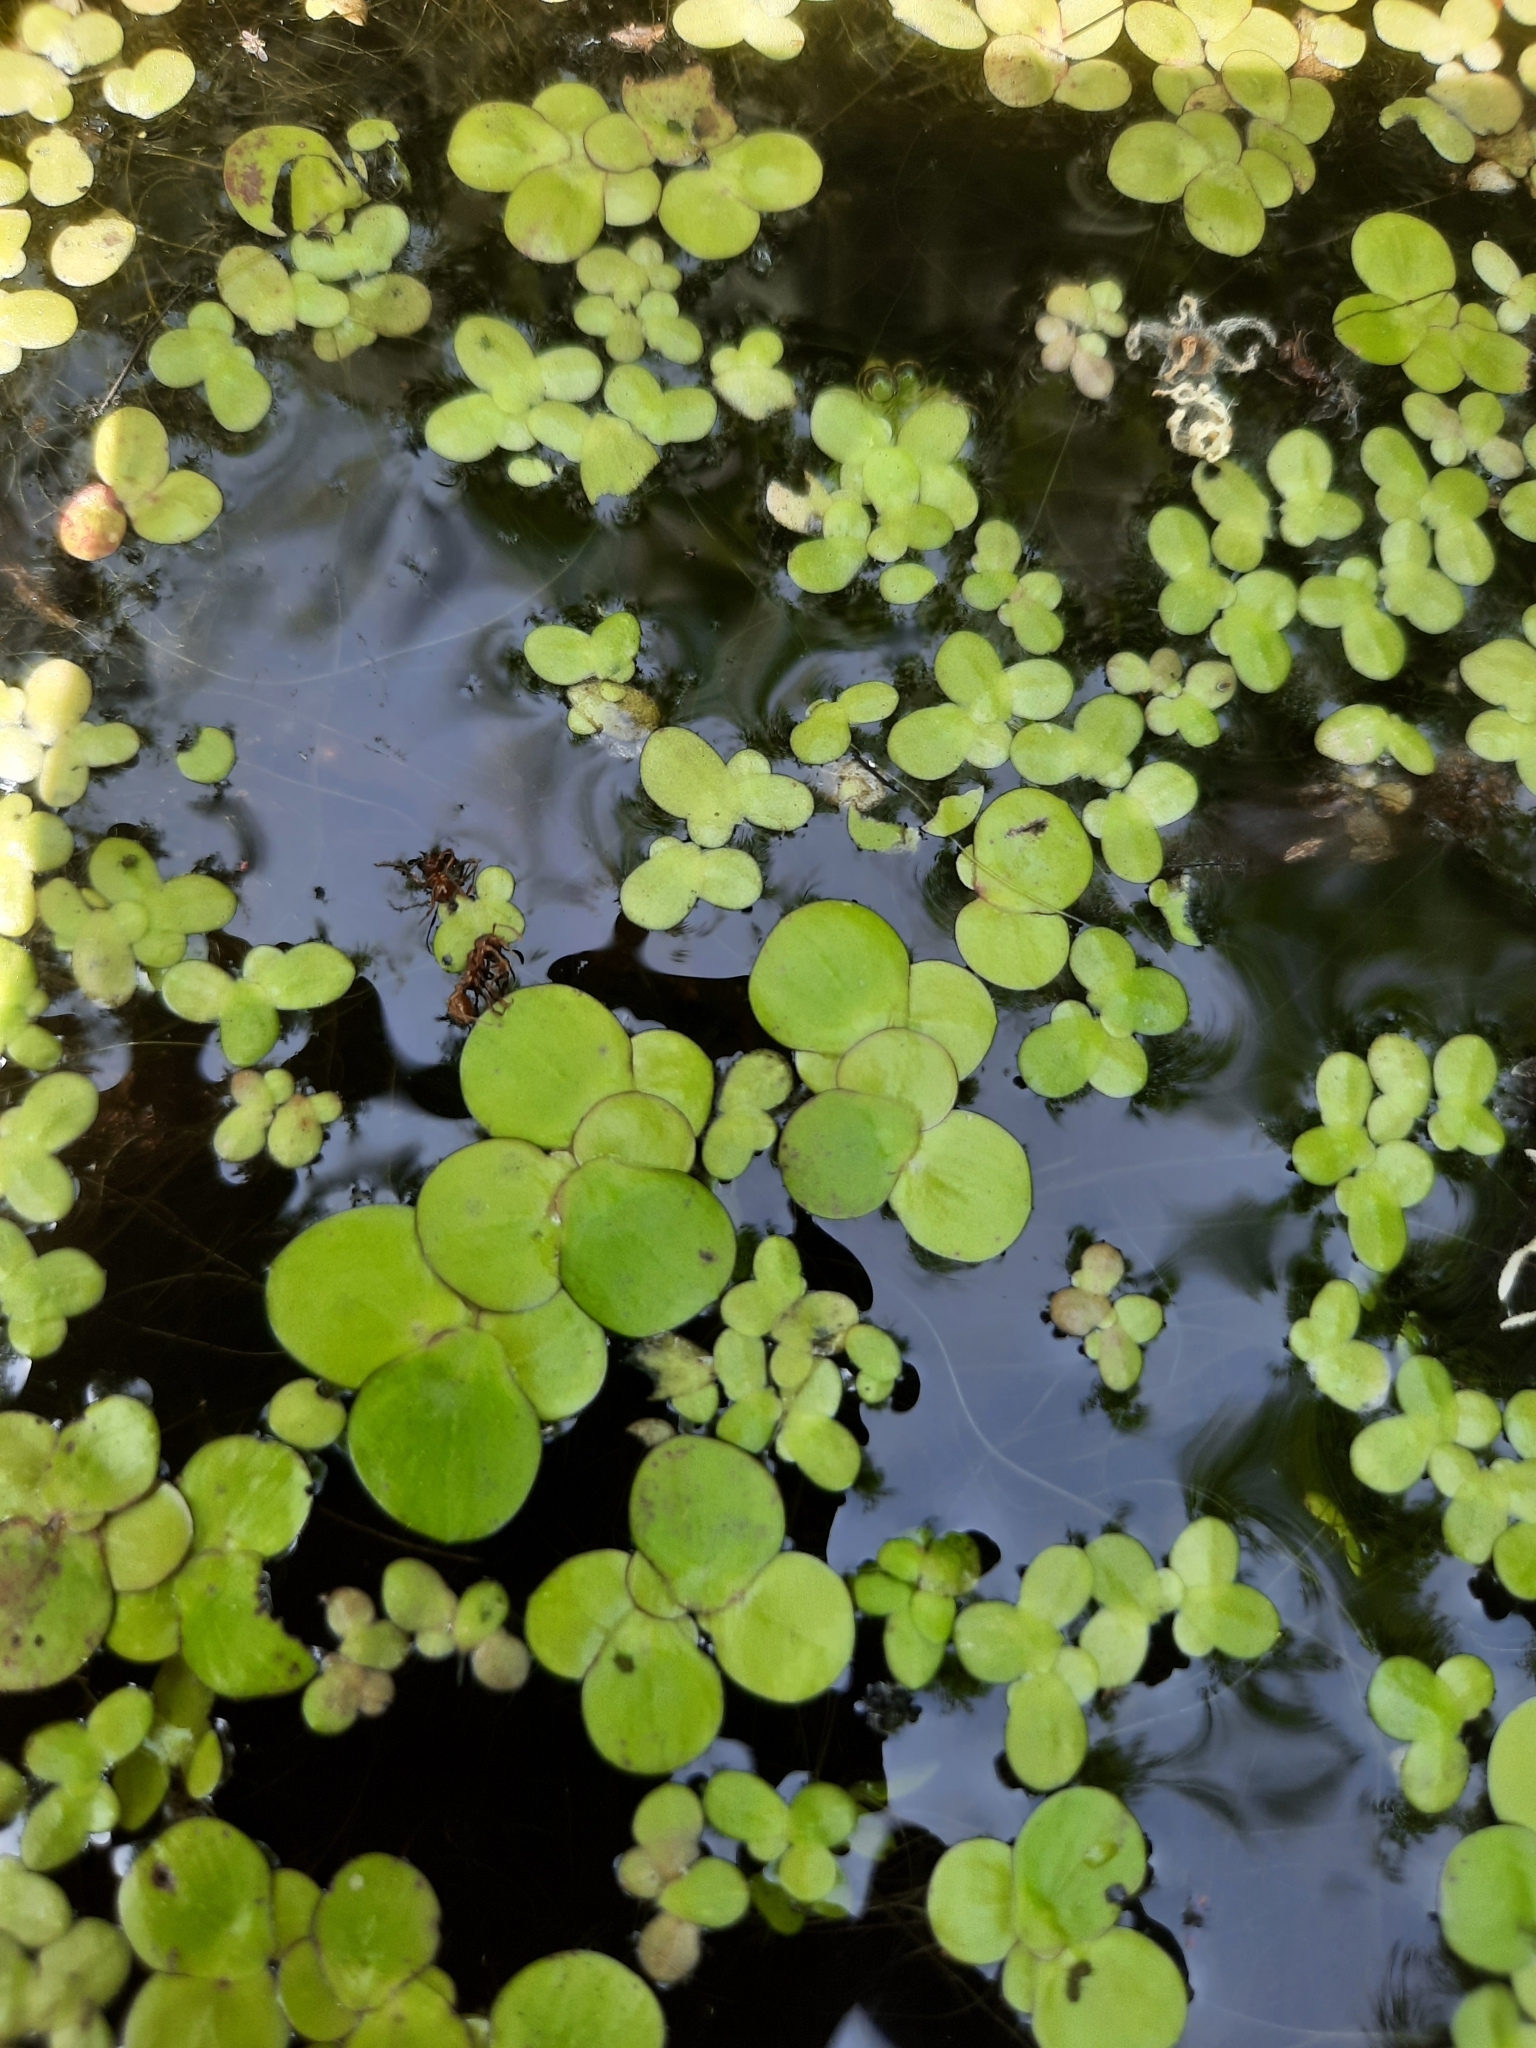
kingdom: Plantae
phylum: Tracheophyta
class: Liliopsida
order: Alismatales
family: Araceae
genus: Spirodela
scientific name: Spirodela polyrhiza
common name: Great duckweed
